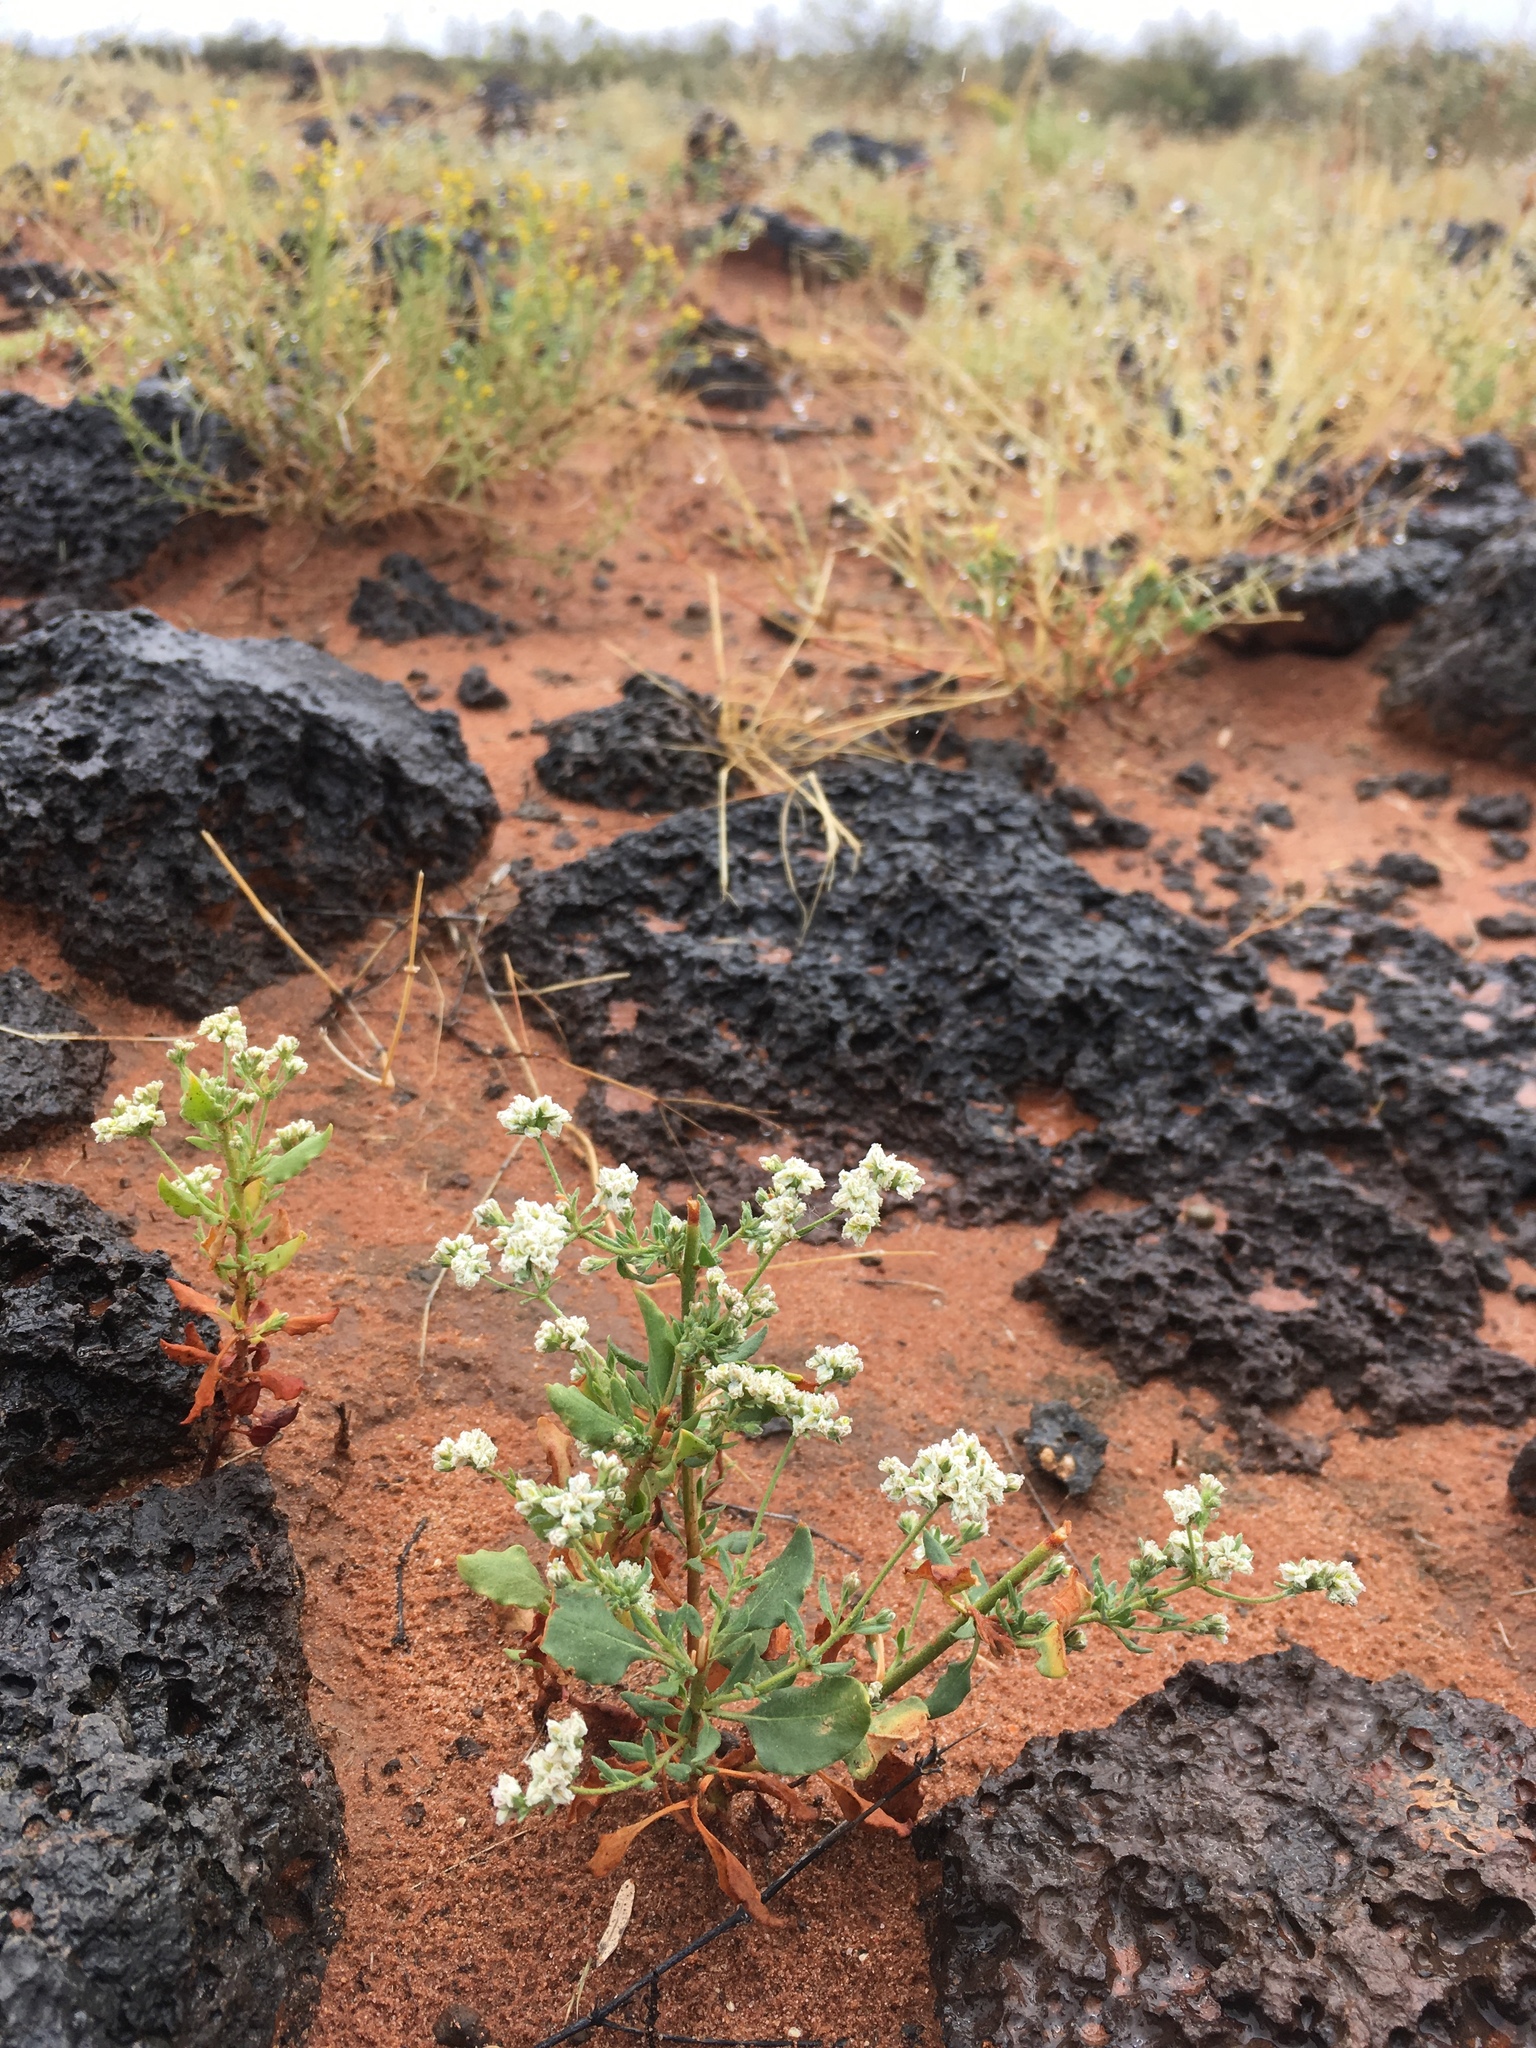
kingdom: Plantae
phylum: Tracheophyta
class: Magnoliopsida
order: Caryophyllales
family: Polygonaceae
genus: Eriogonum
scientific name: Eriogonum abertianum
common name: Abert's wild buckwheat
